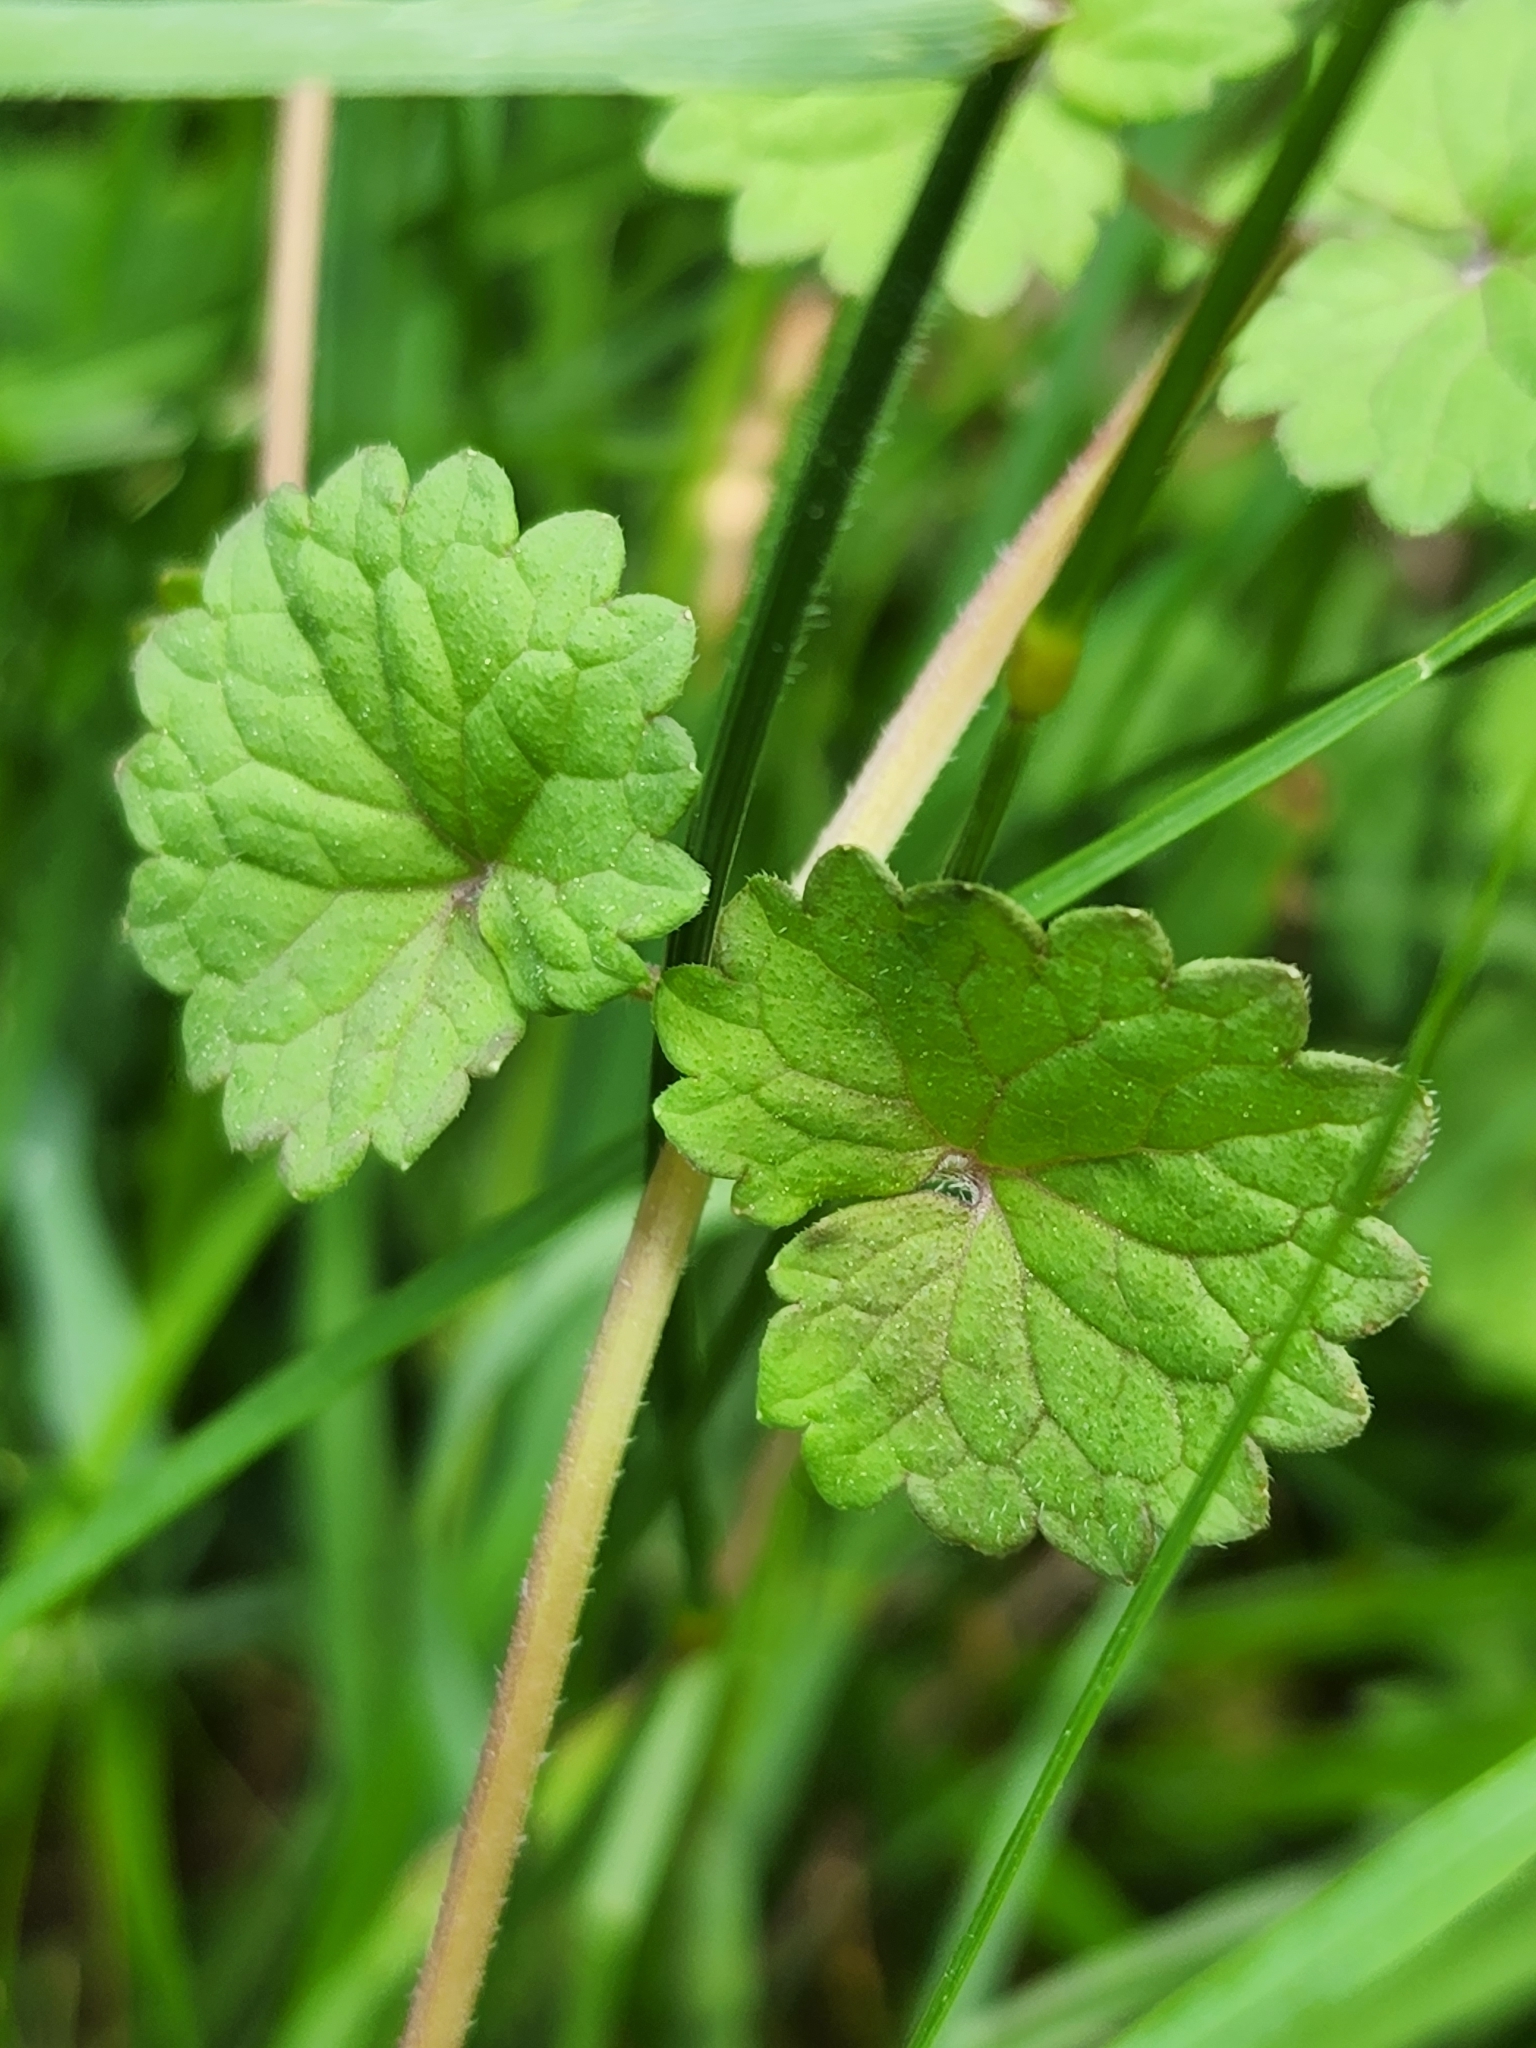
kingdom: Plantae
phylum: Tracheophyta
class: Magnoliopsida
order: Lamiales
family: Lamiaceae
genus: Glechoma
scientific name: Glechoma hederacea
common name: Ground ivy
